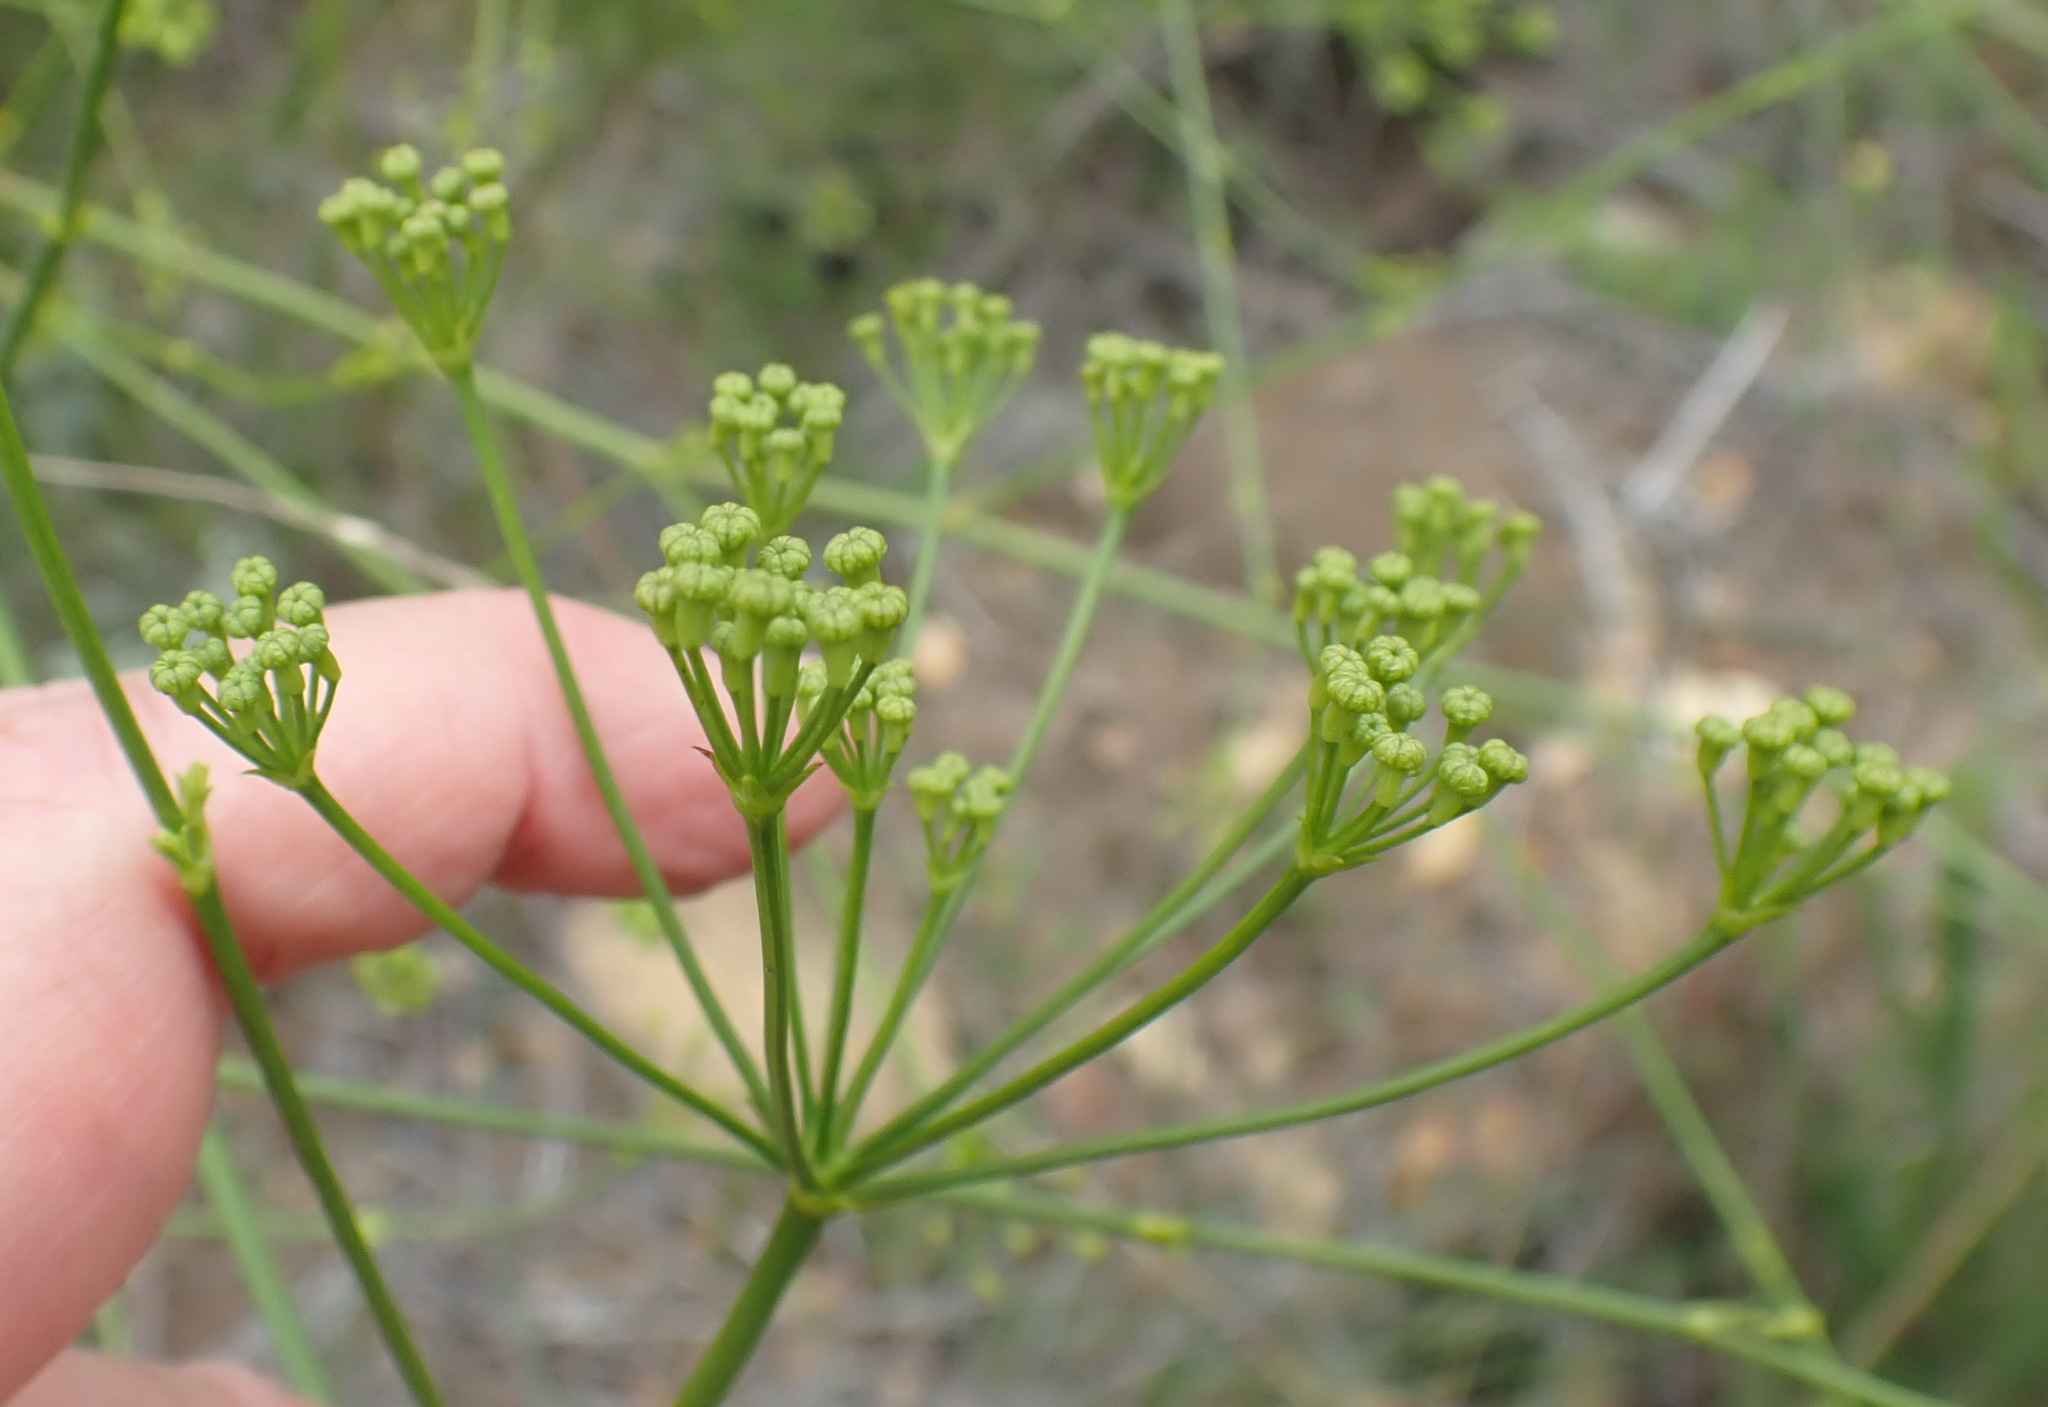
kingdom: Plantae
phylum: Tracheophyta
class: Magnoliopsida
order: Apiales
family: Apiaceae
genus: Anginon
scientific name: Anginon difforme
